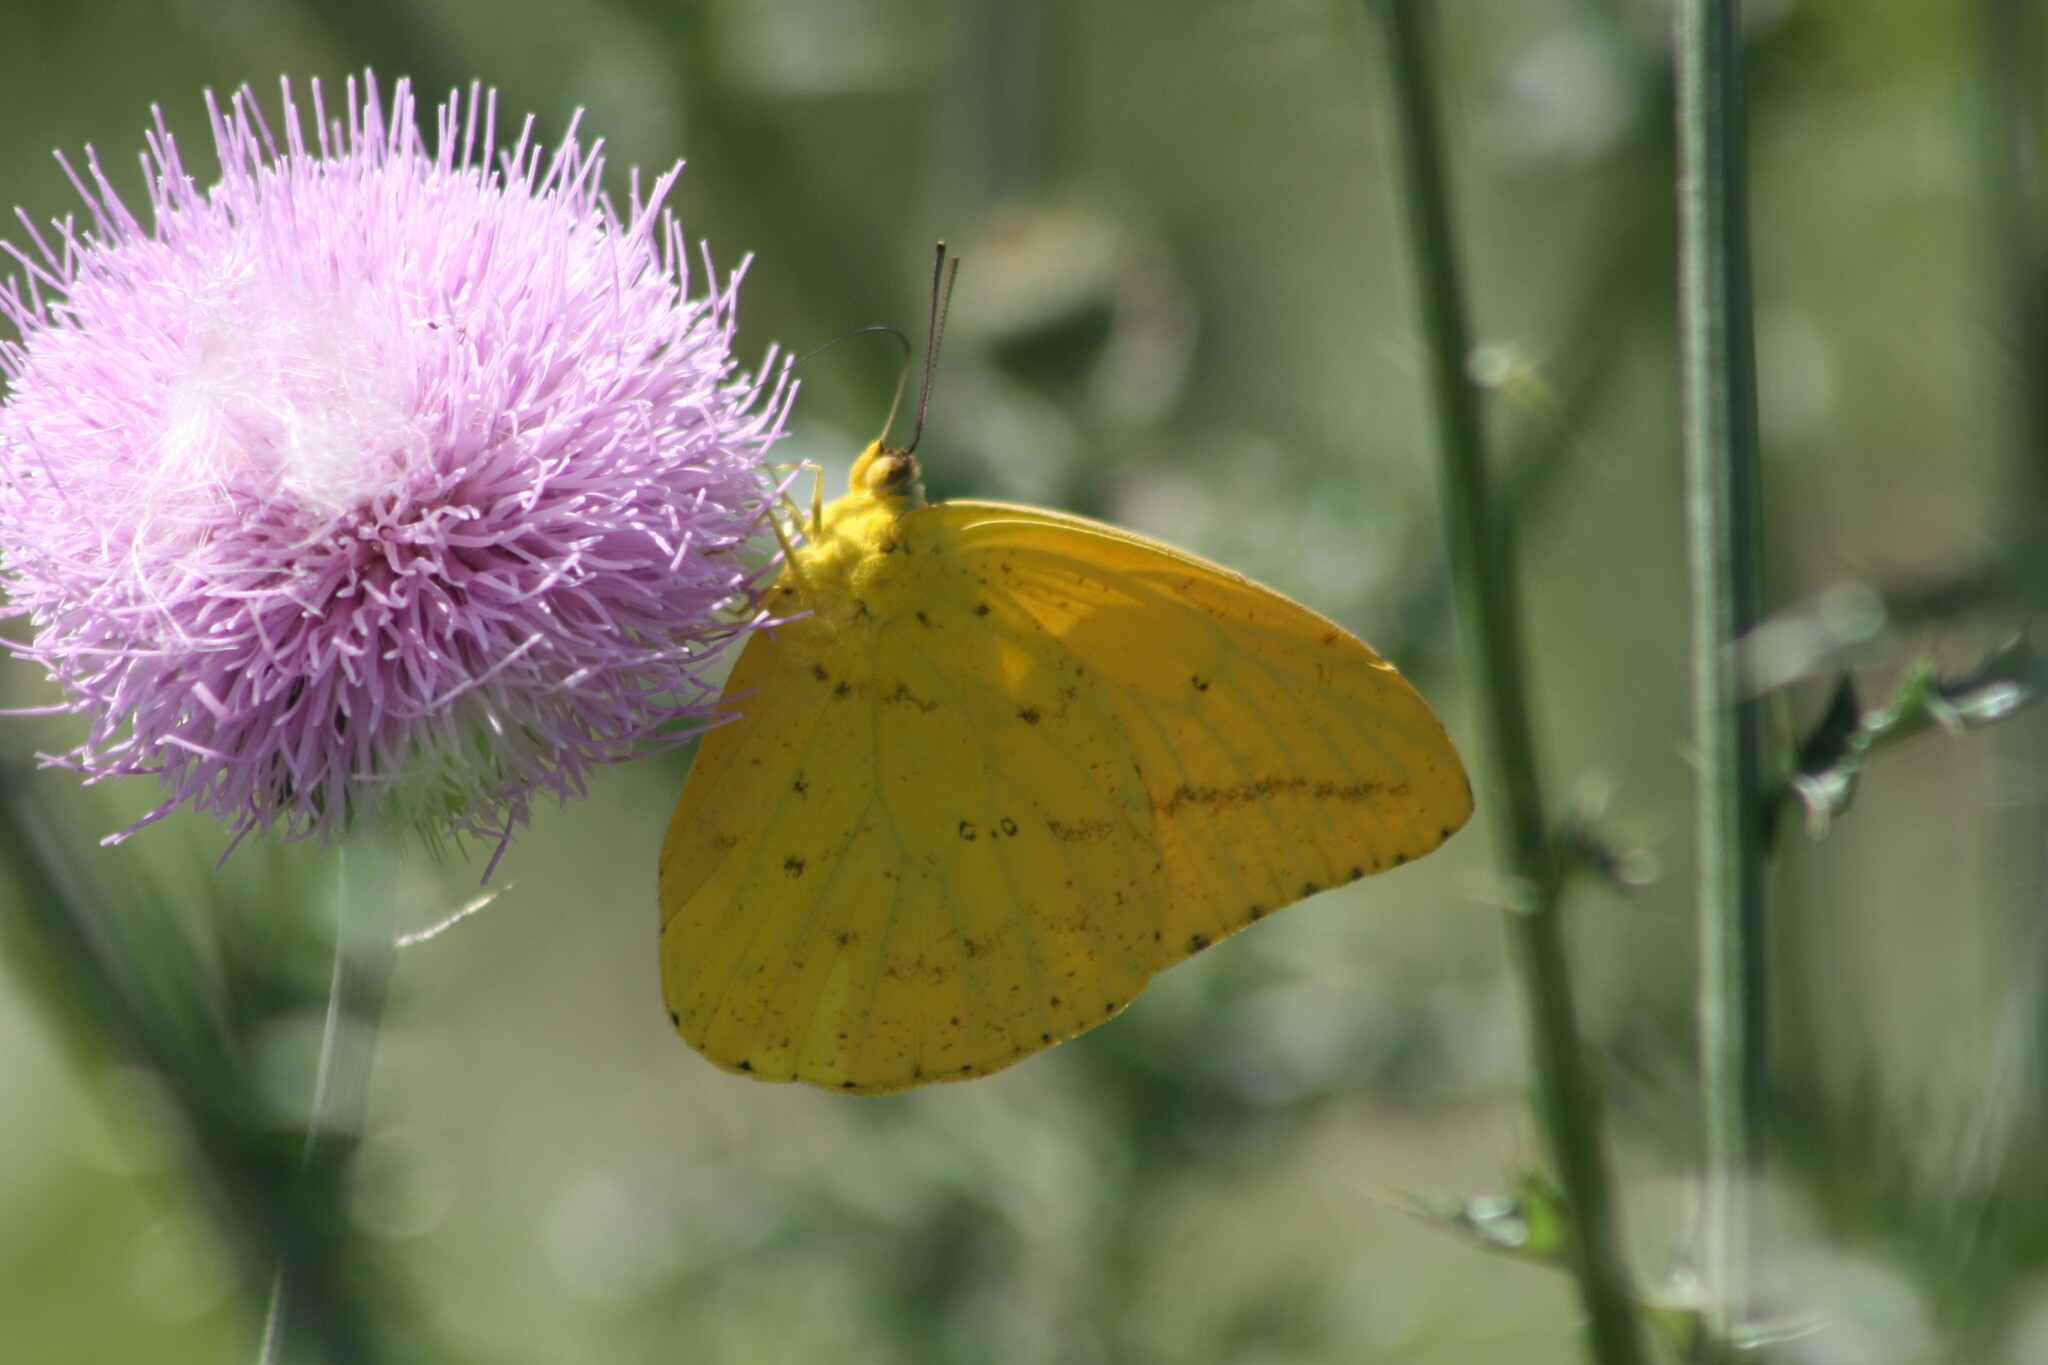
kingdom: Animalia
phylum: Arthropoda
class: Insecta
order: Lepidoptera
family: Pieridae
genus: Phoebis
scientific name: Phoebis agarithe
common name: Large orange sulphur
